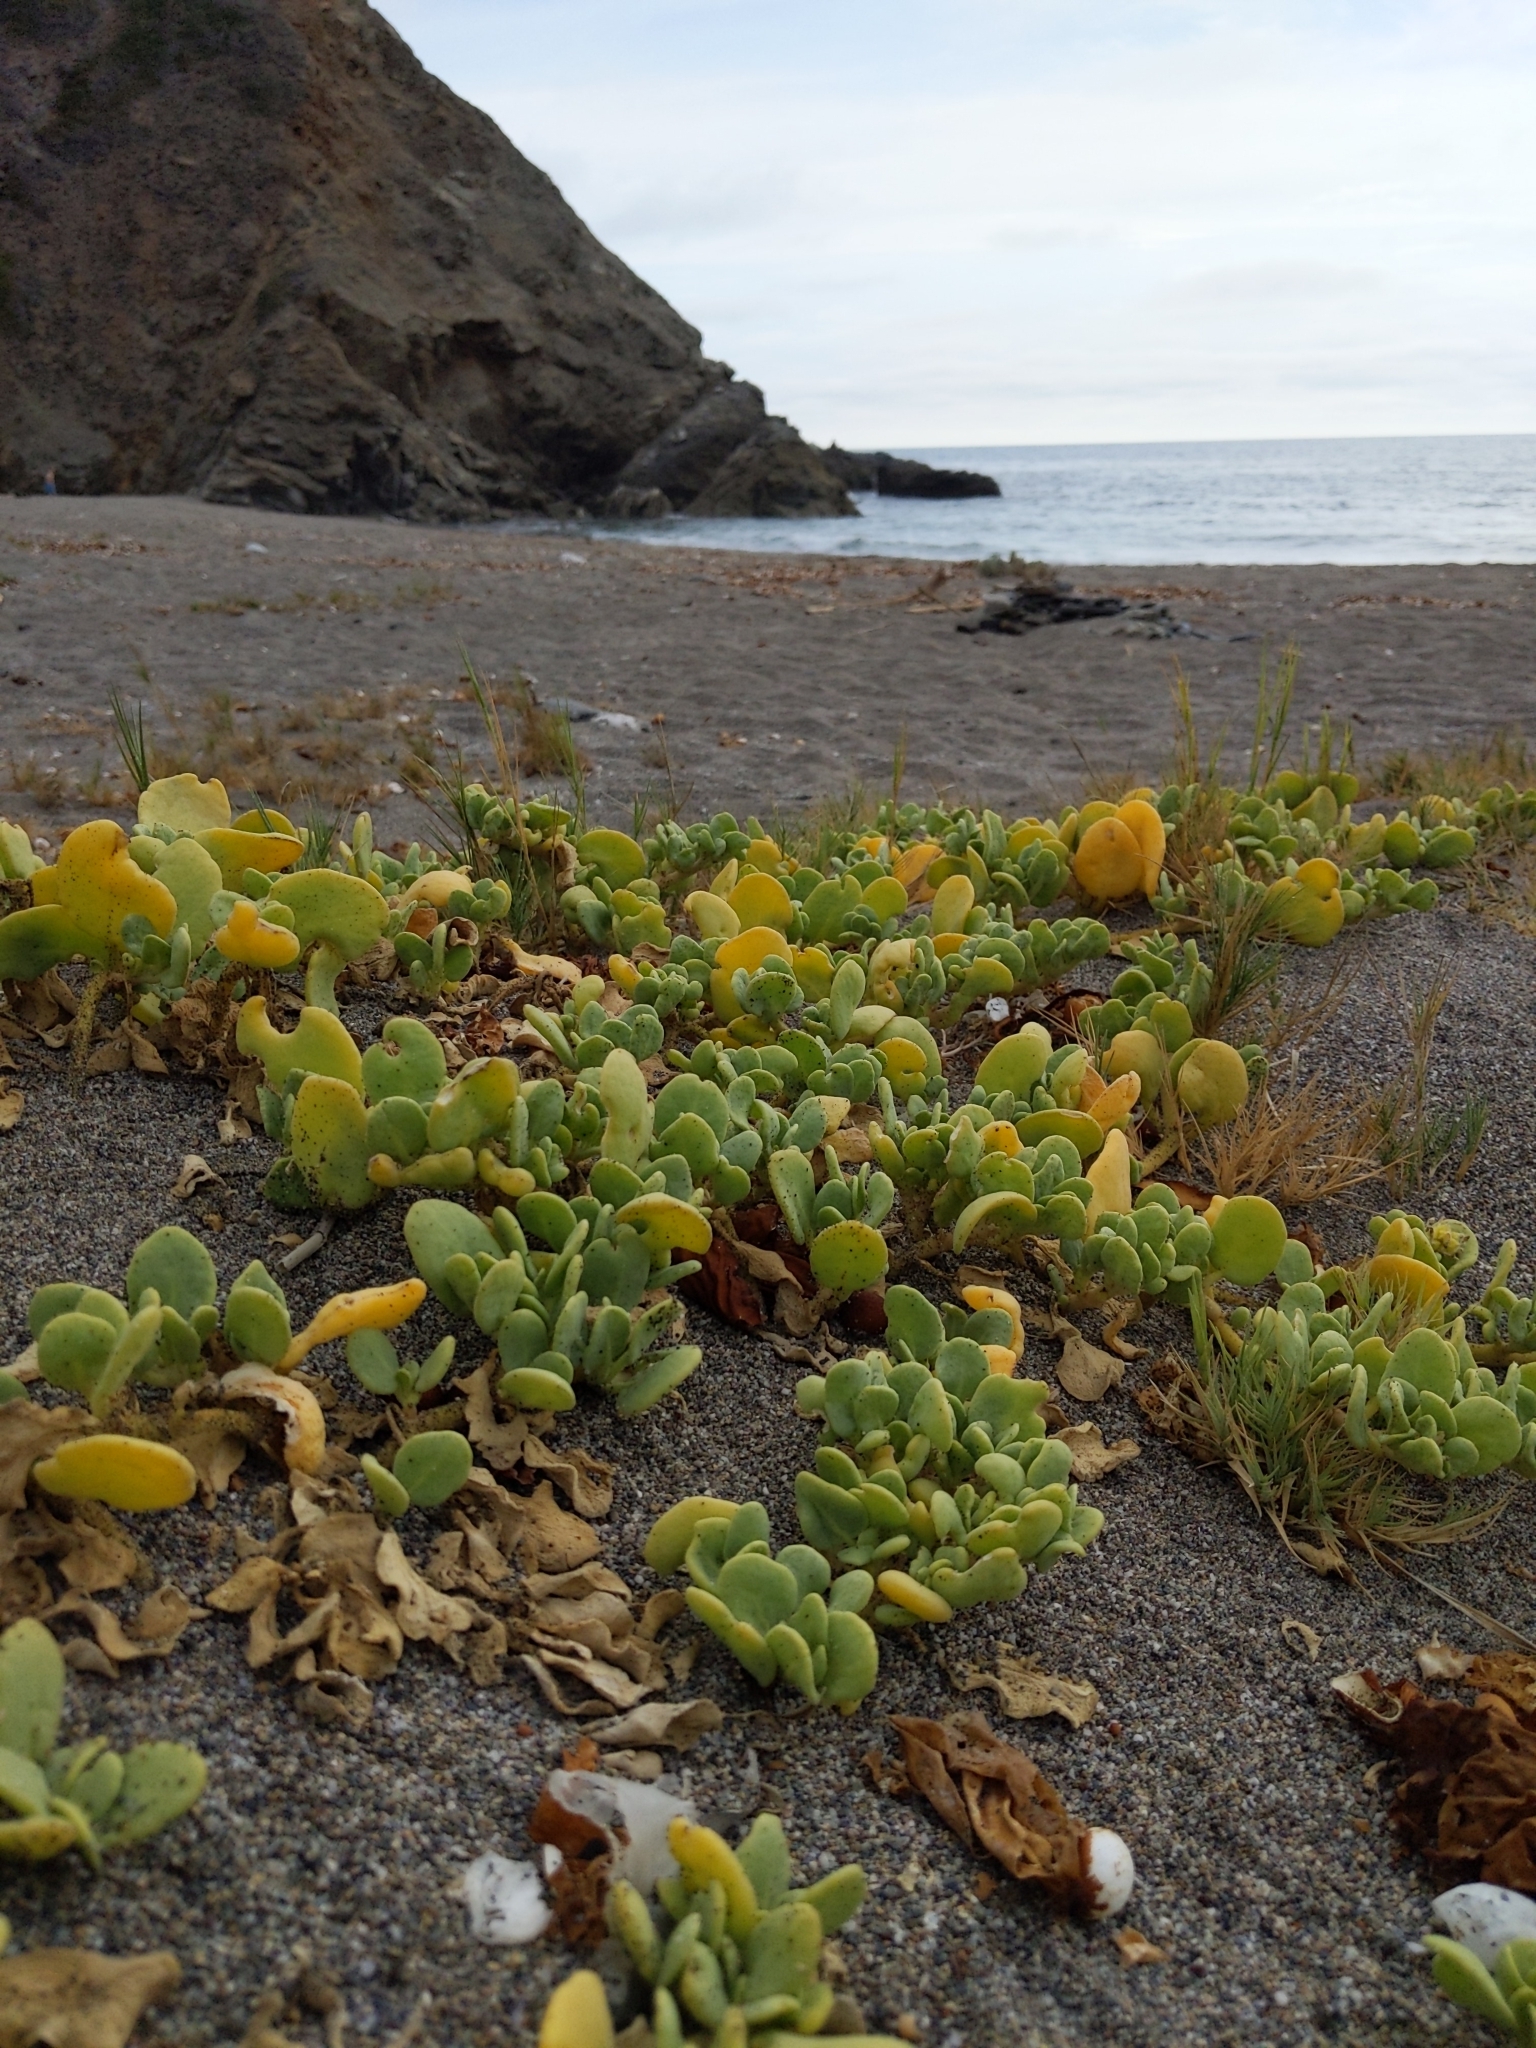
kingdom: Plantae
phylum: Tracheophyta
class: Magnoliopsida
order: Caryophyllales
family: Nyctaginaceae
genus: Abronia
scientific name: Abronia maritima
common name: Red sand-verbena
